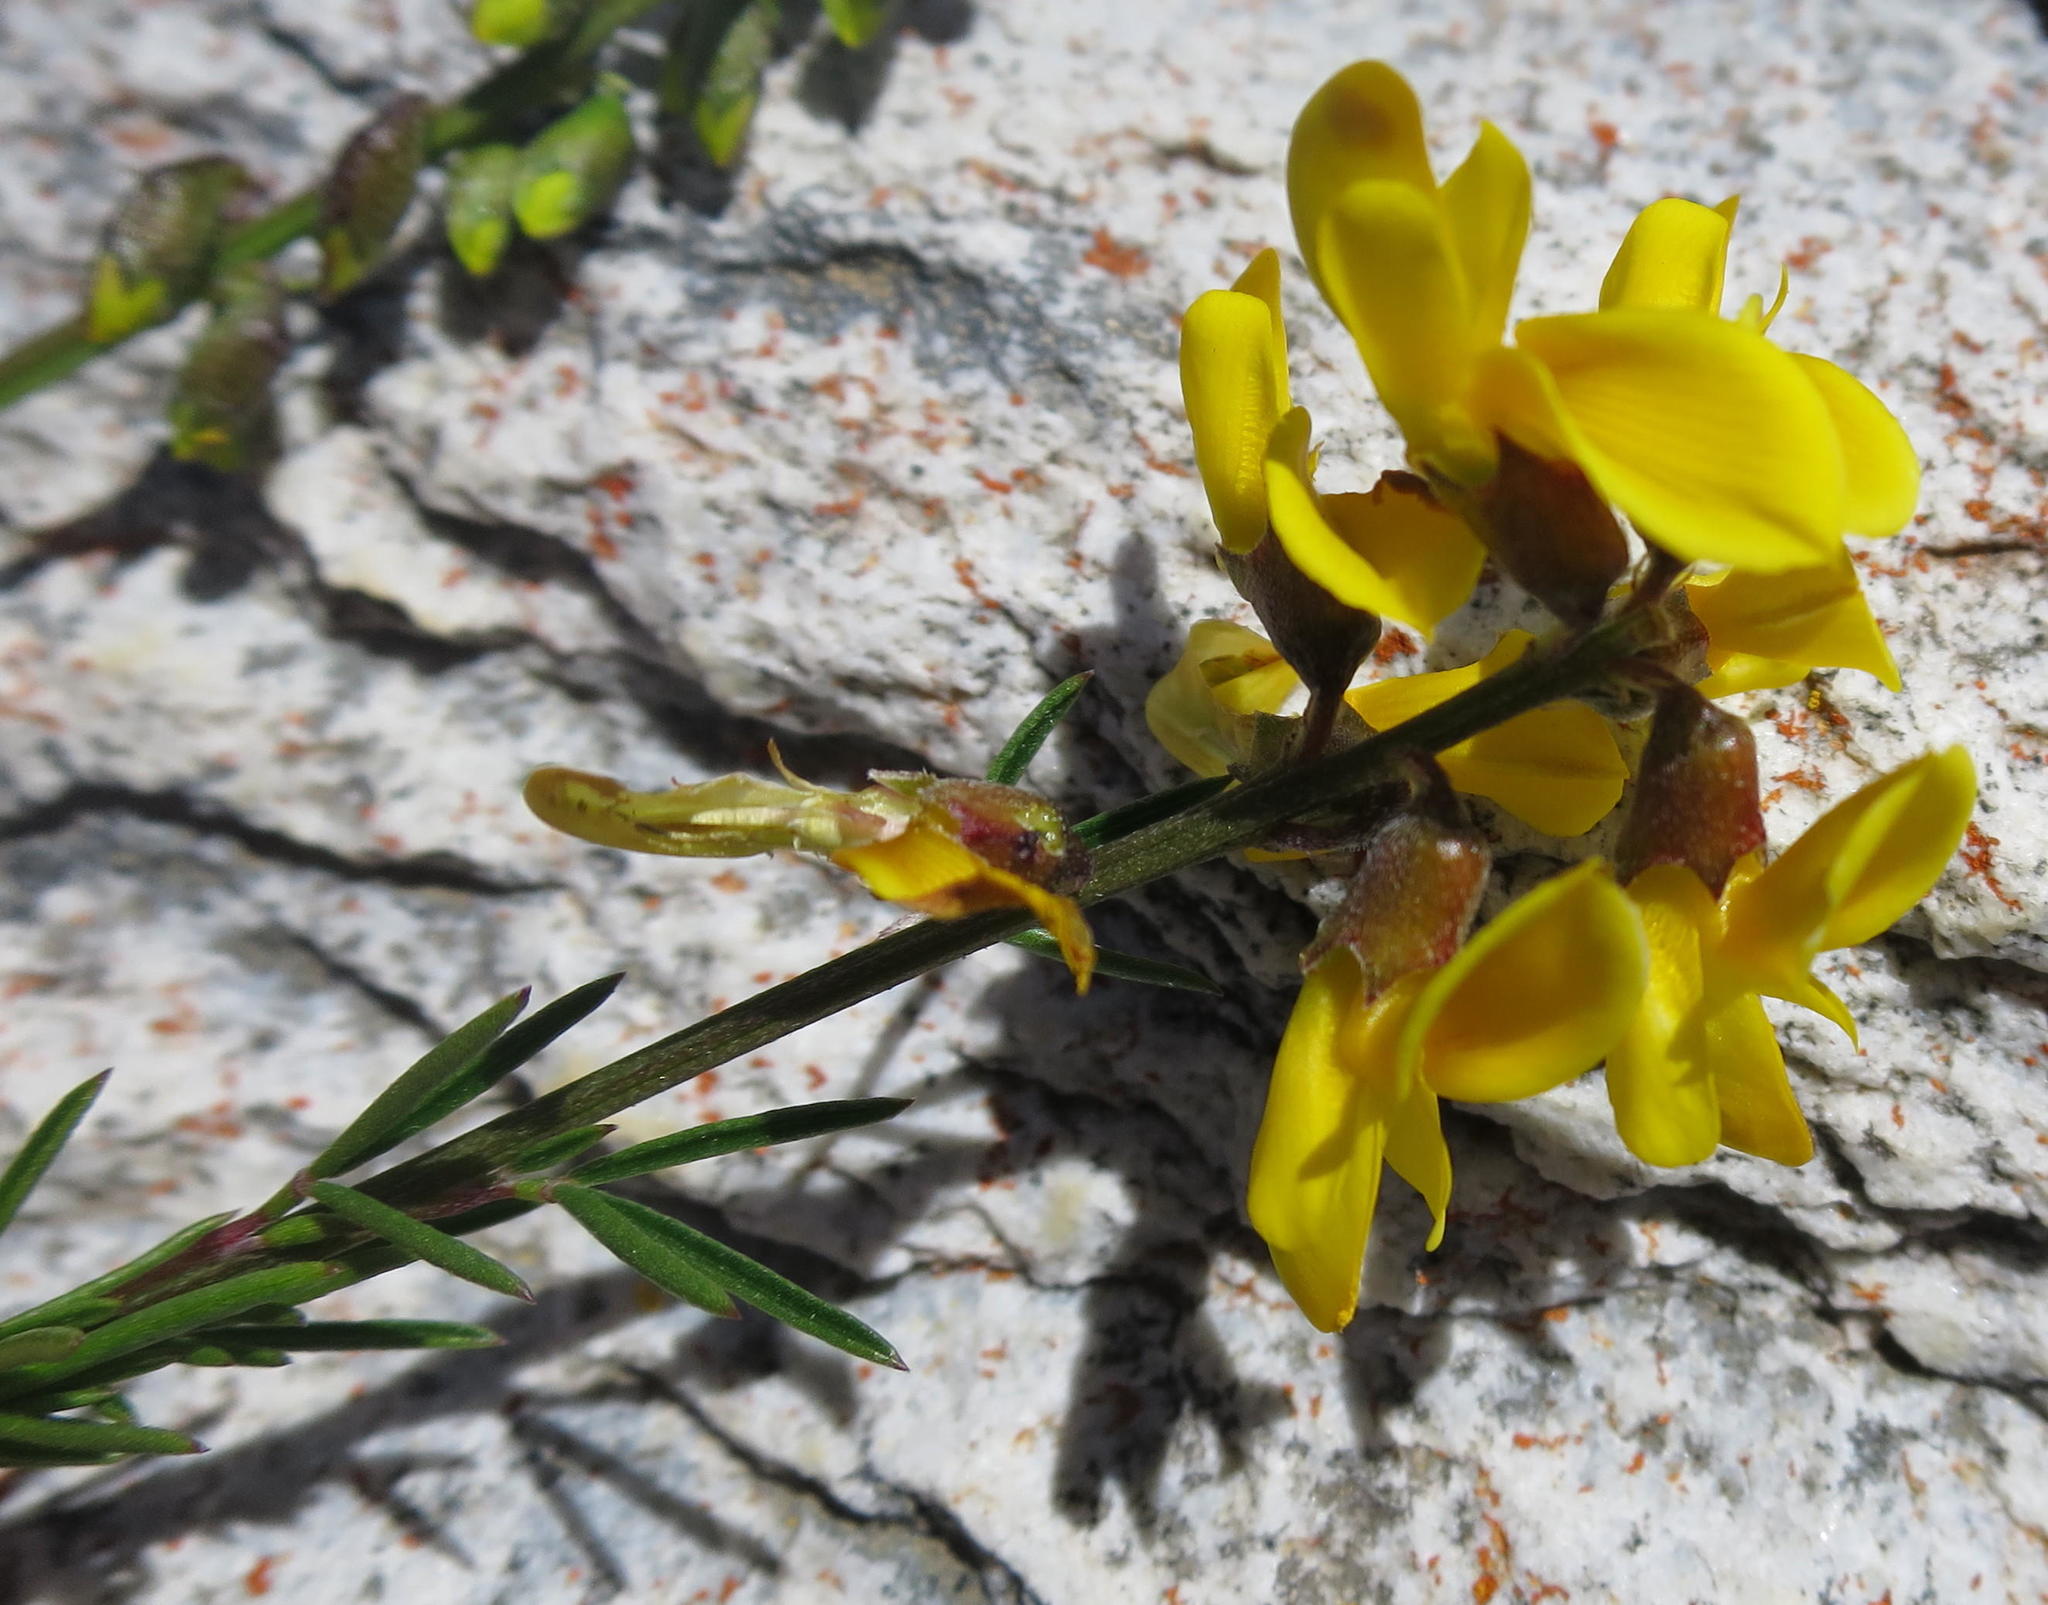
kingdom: Plantae
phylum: Tracheophyta
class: Magnoliopsida
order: Fabales
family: Fabaceae
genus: Wiborgiella
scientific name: Wiborgiella mucronata
